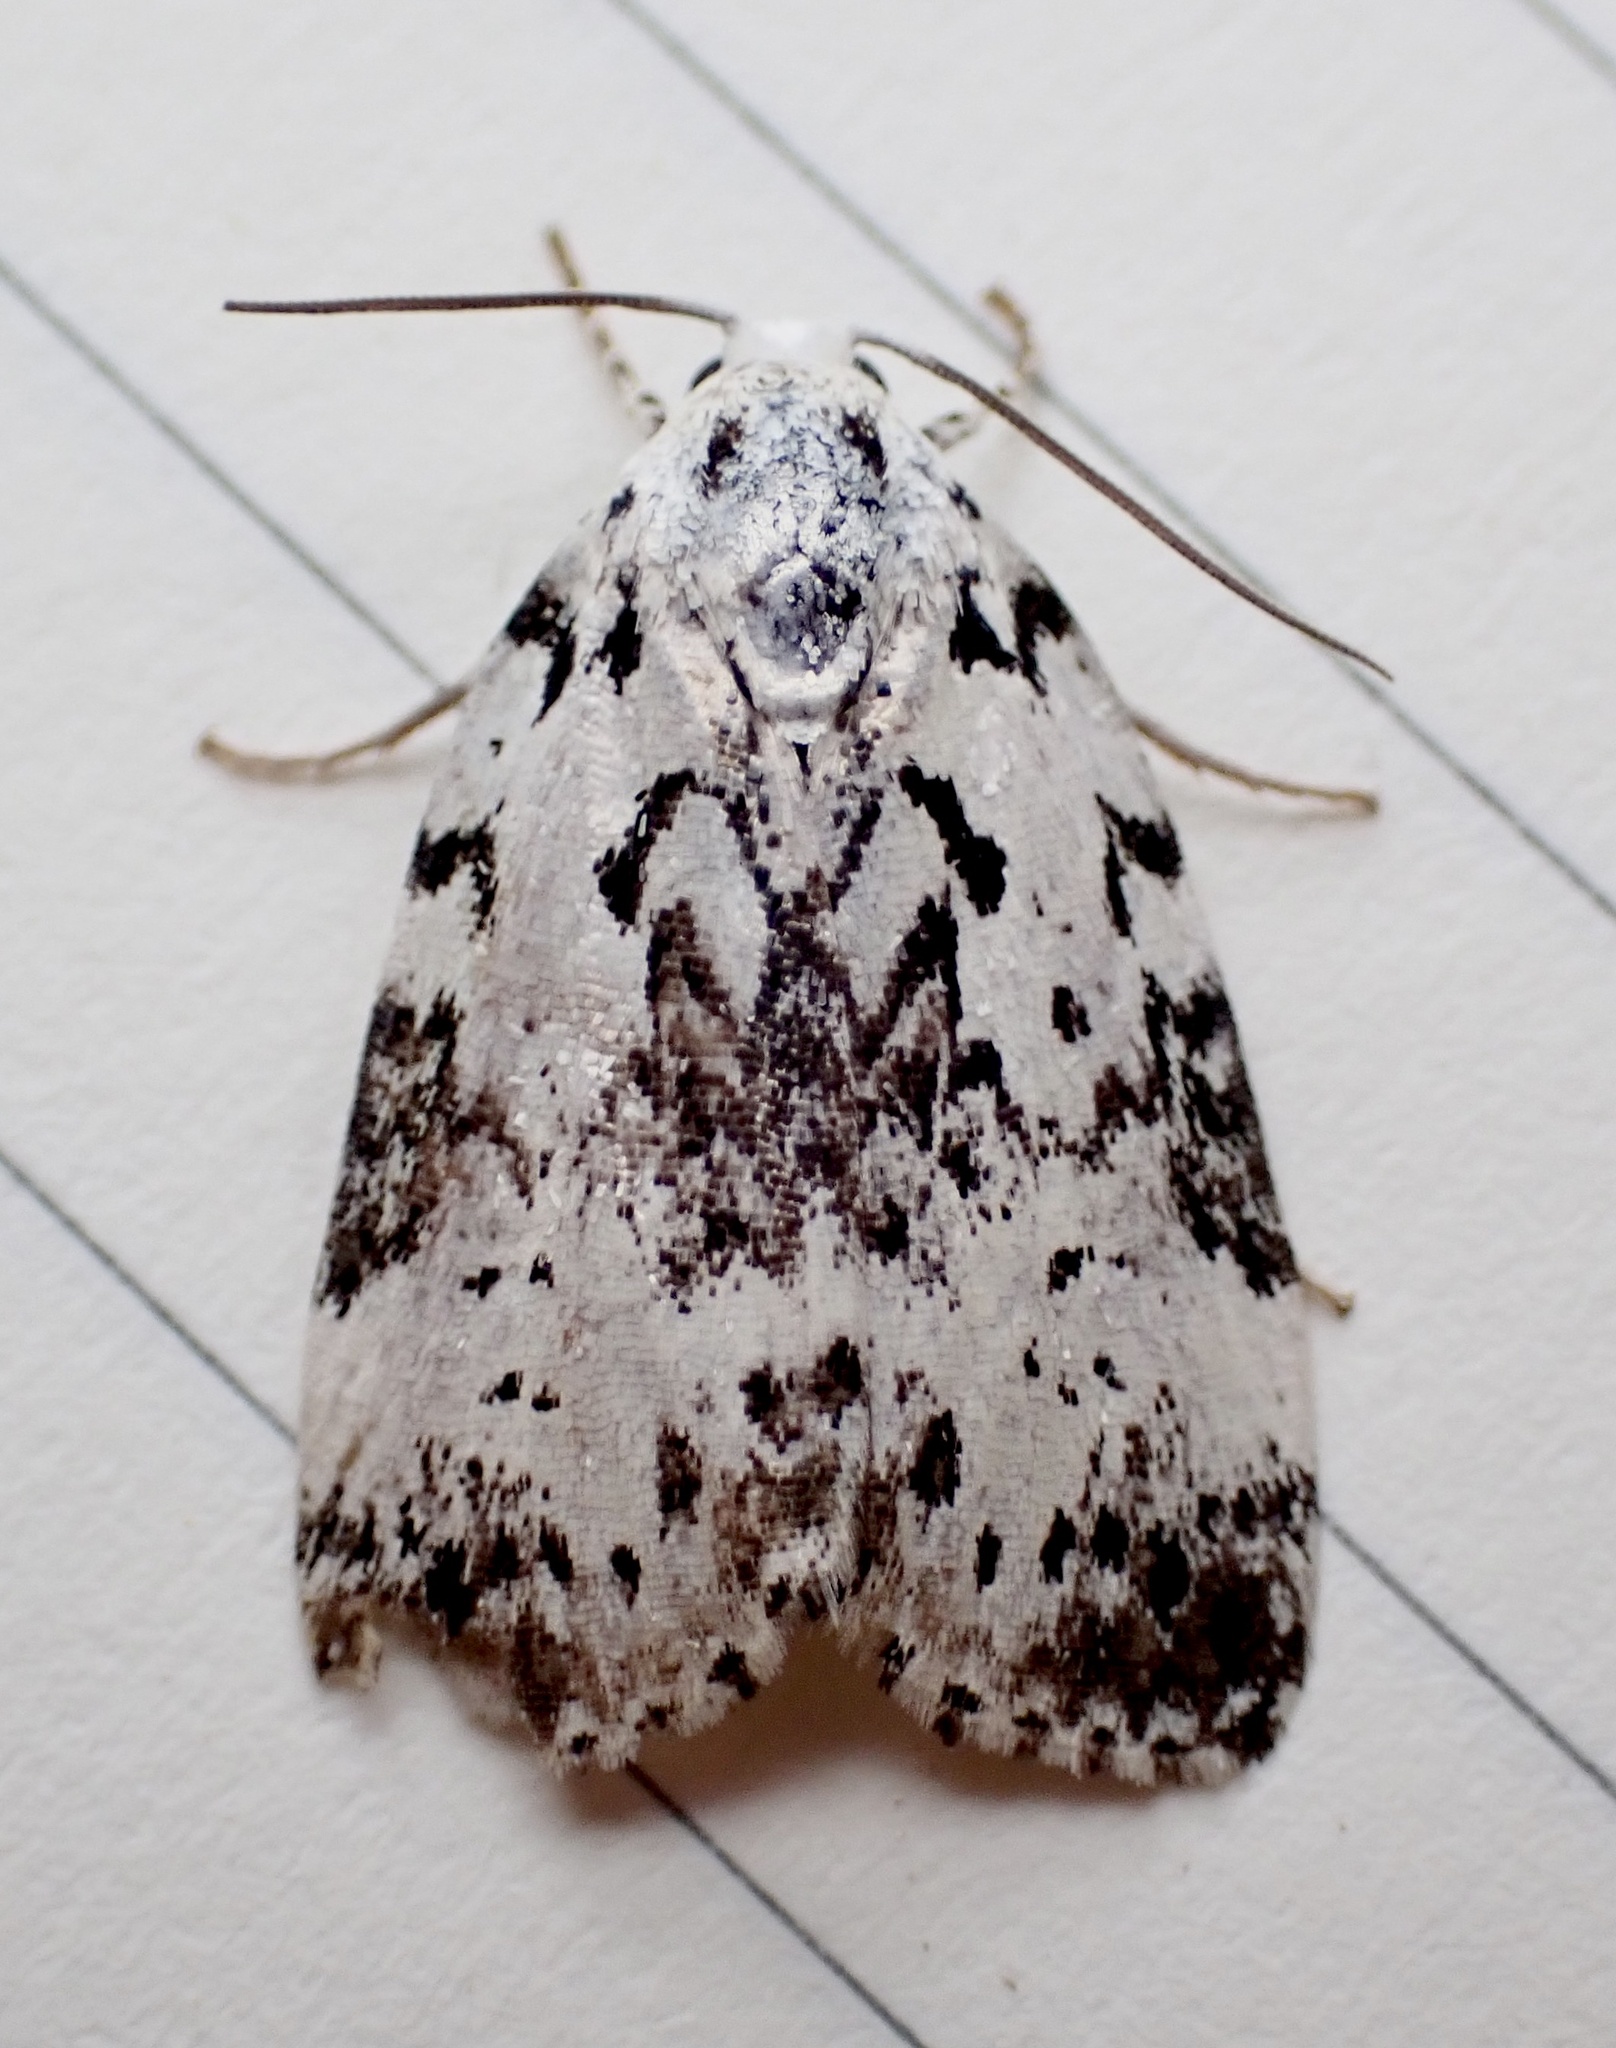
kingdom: Animalia
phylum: Arthropoda
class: Insecta
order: Lepidoptera
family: Noctuidae
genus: Polygrammate
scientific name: Polygrammate hebraeicum
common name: Hebrew moth
